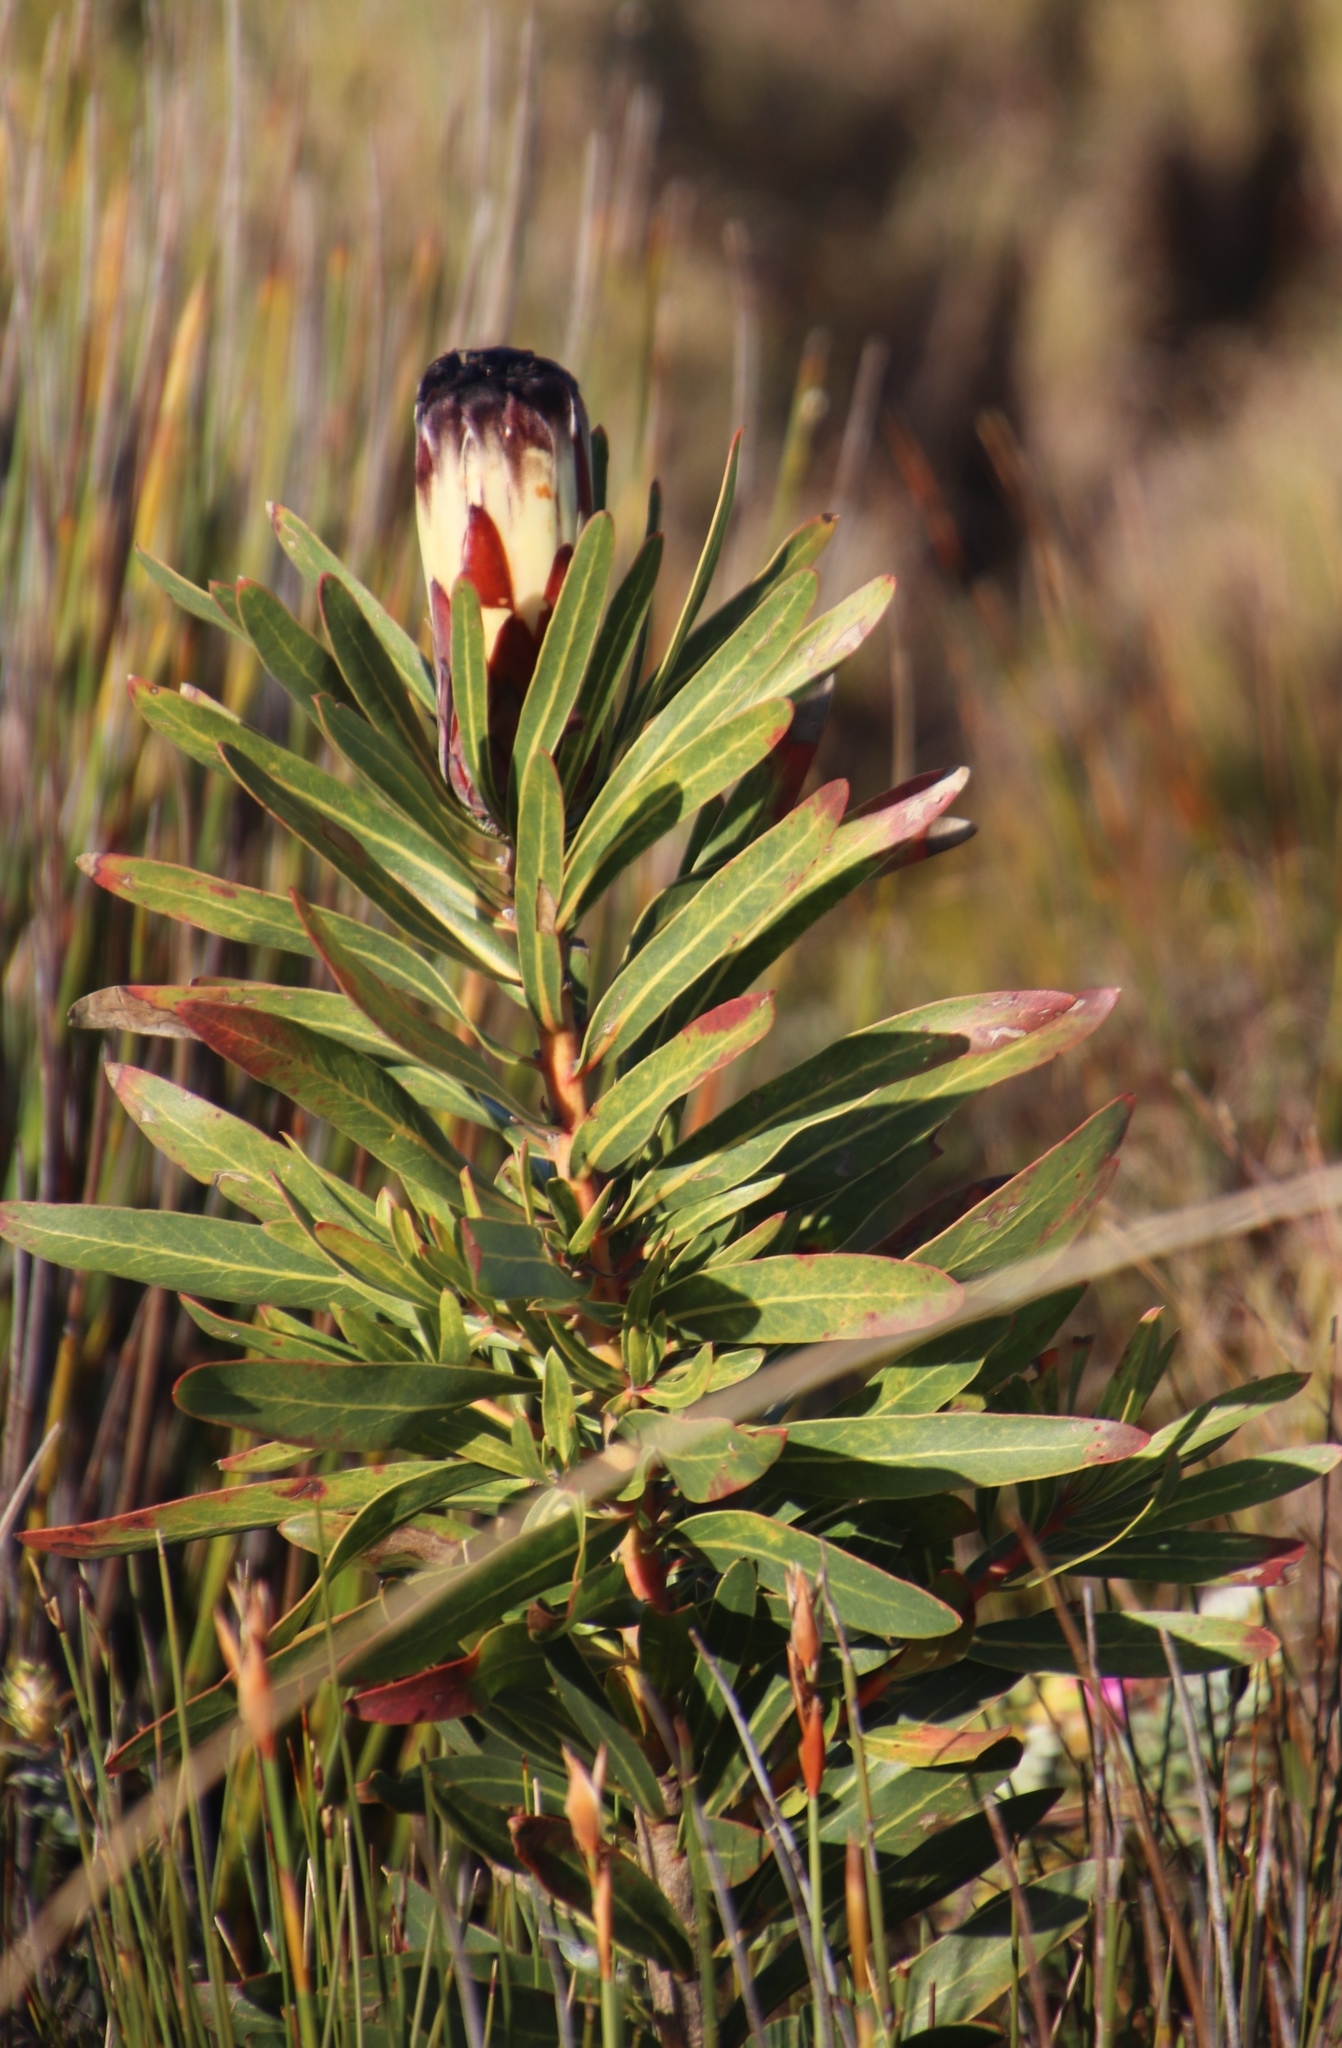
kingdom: Plantae
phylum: Tracheophyta
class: Magnoliopsida
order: Proteales
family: Proteaceae
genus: Protea
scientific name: Protea lepidocarpodendron
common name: Black-bearded protea
